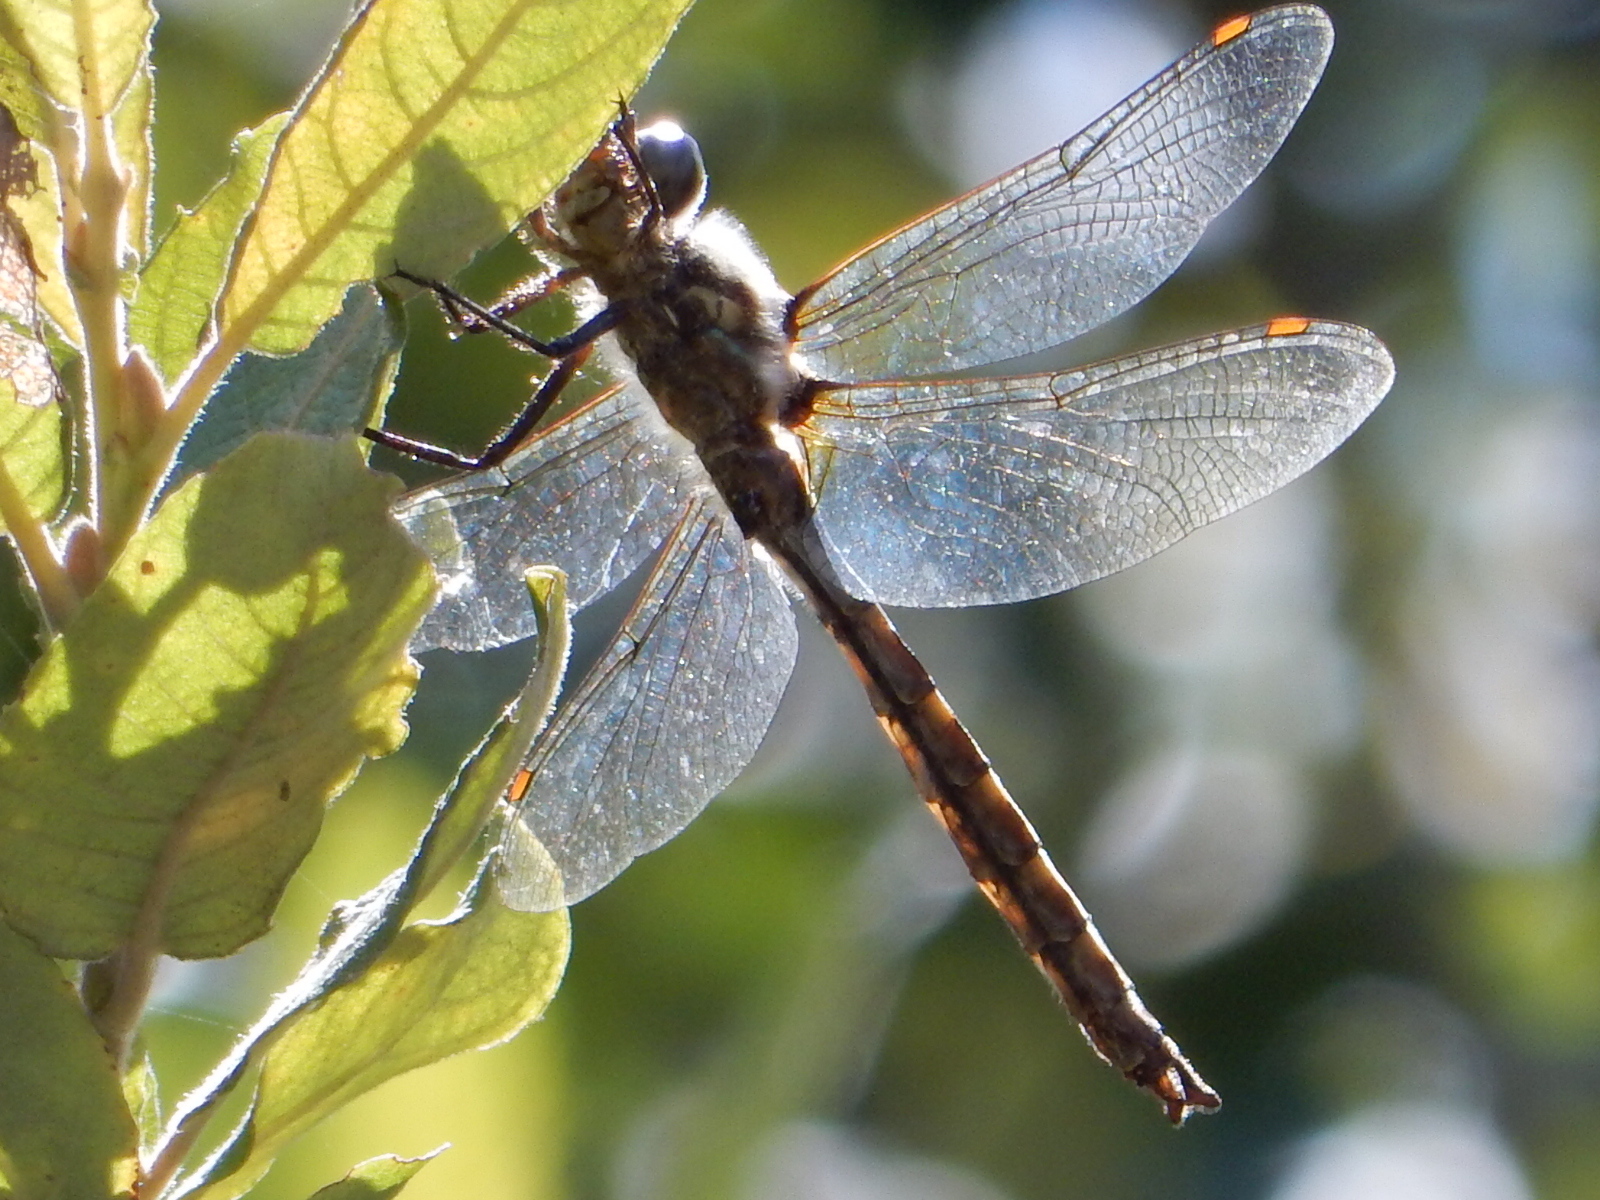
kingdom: Animalia
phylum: Arthropoda
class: Insecta
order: Odonata
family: Corduliidae
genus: Procordulia
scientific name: Procordulia grayi
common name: Yellow spotted dragonfly
